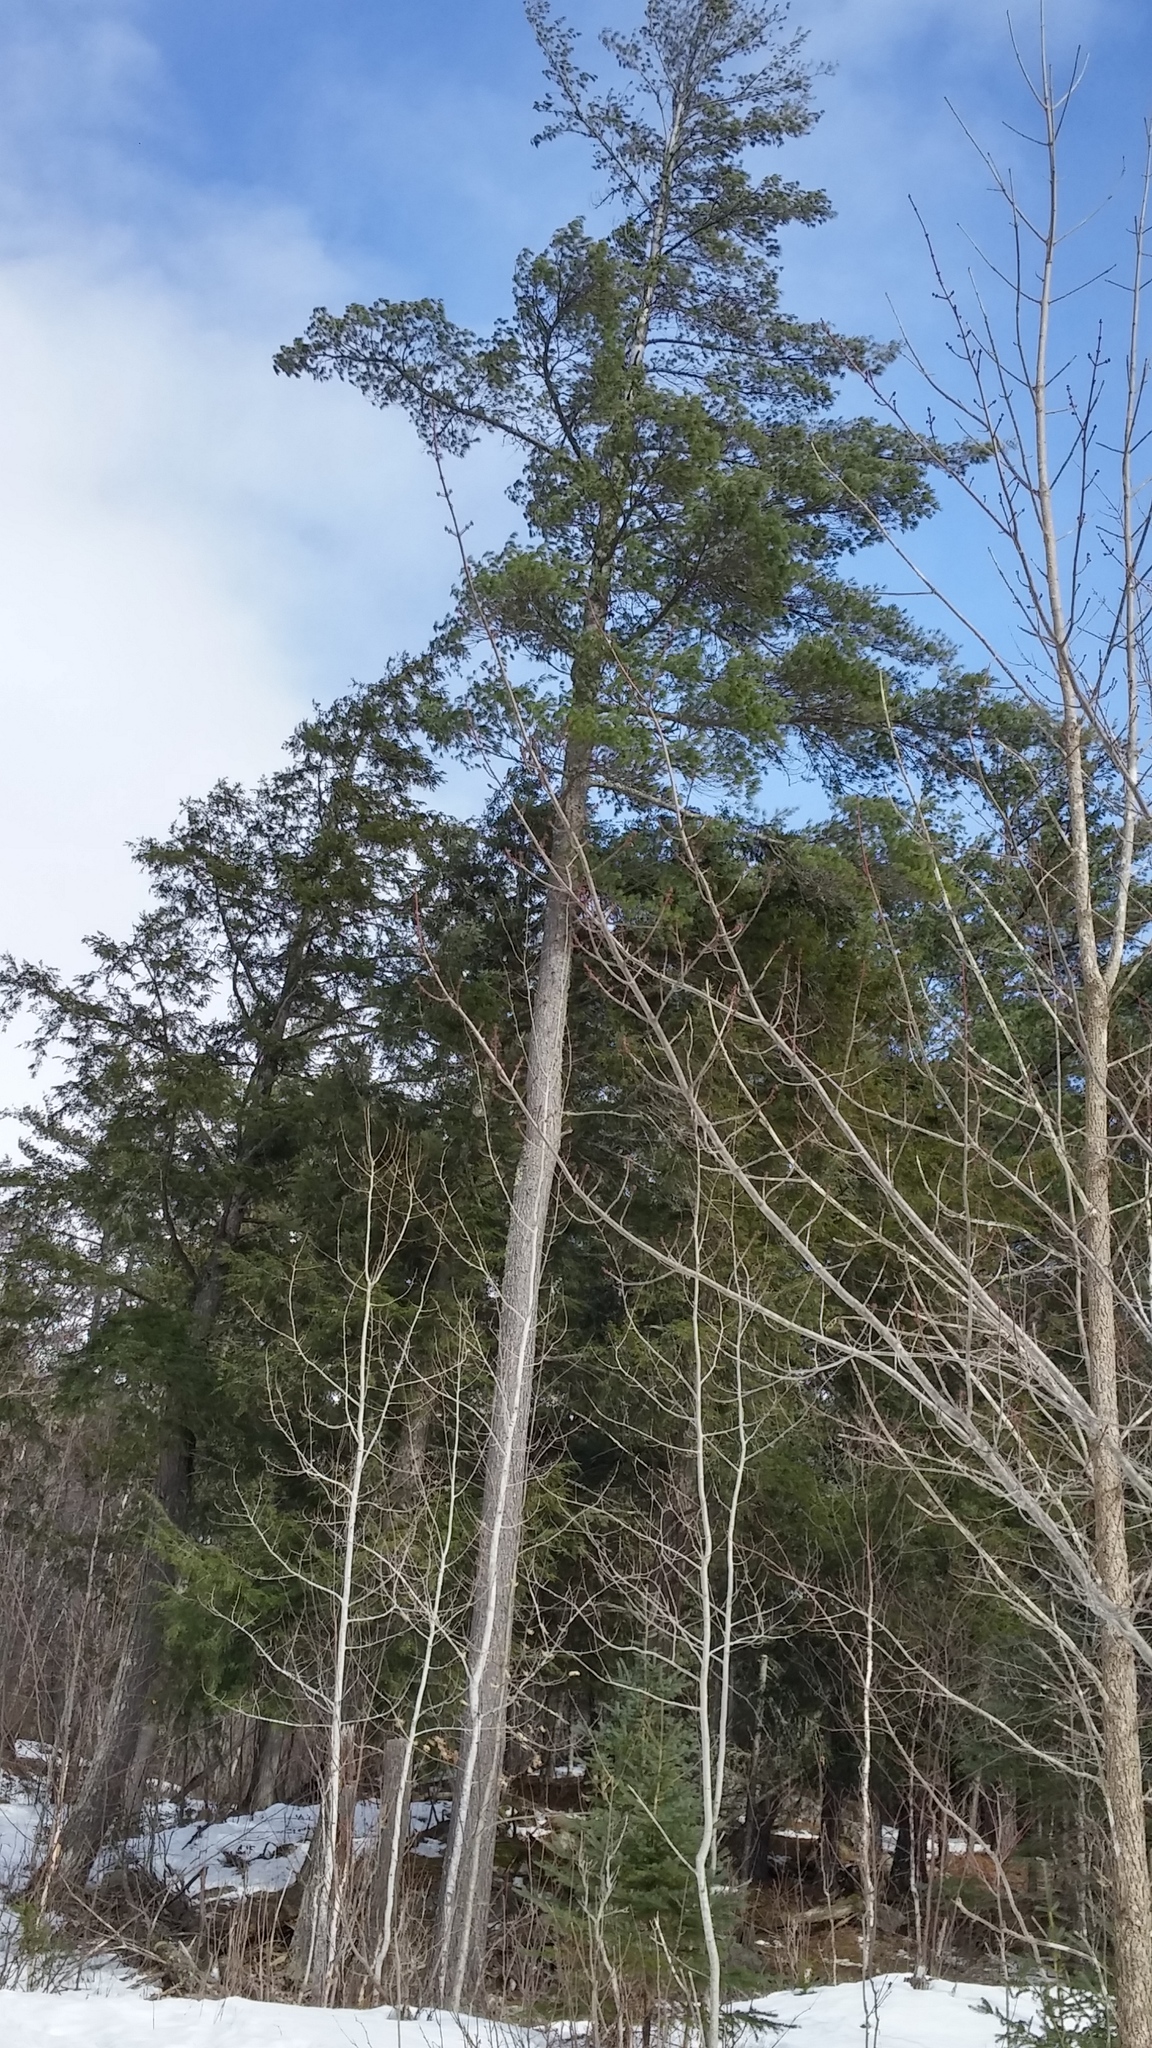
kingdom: Plantae
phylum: Tracheophyta
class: Pinopsida
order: Pinales
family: Pinaceae
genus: Pinus
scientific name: Pinus strobus
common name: Weymouth pine
